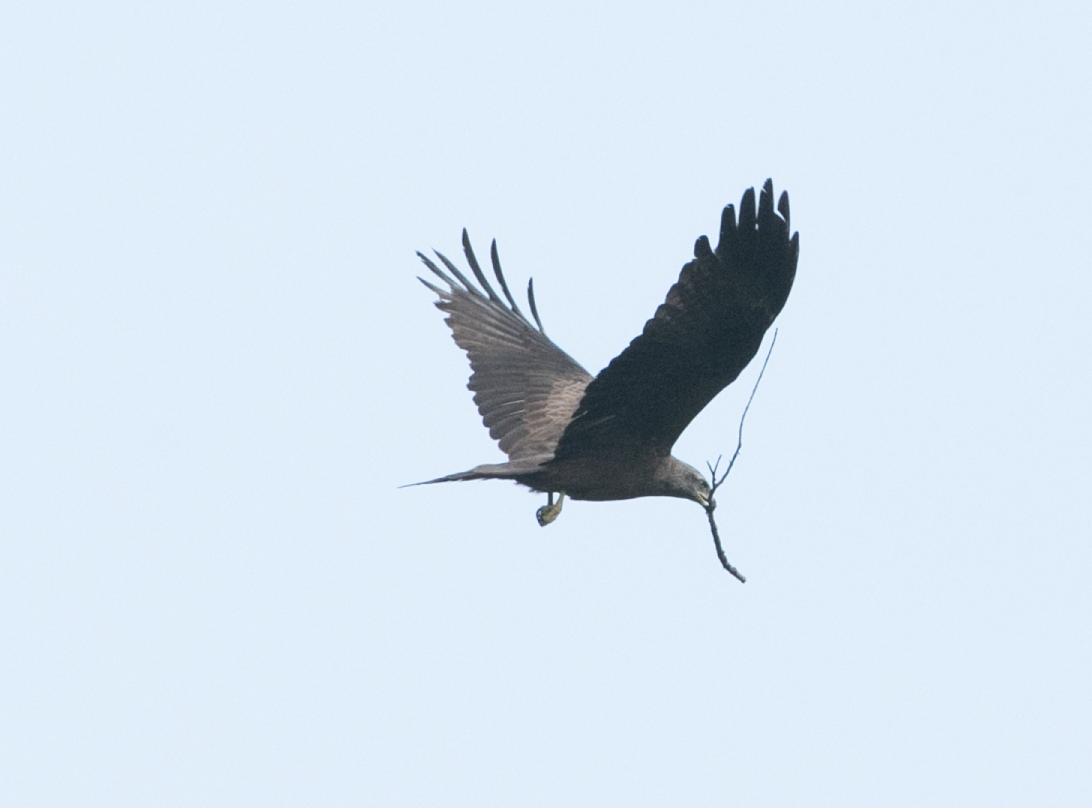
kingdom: Animalia
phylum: Chordata
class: Aves
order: Accipitriformes
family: Accipitridae
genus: Milvus
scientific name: Milvus migrans
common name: Black kite
